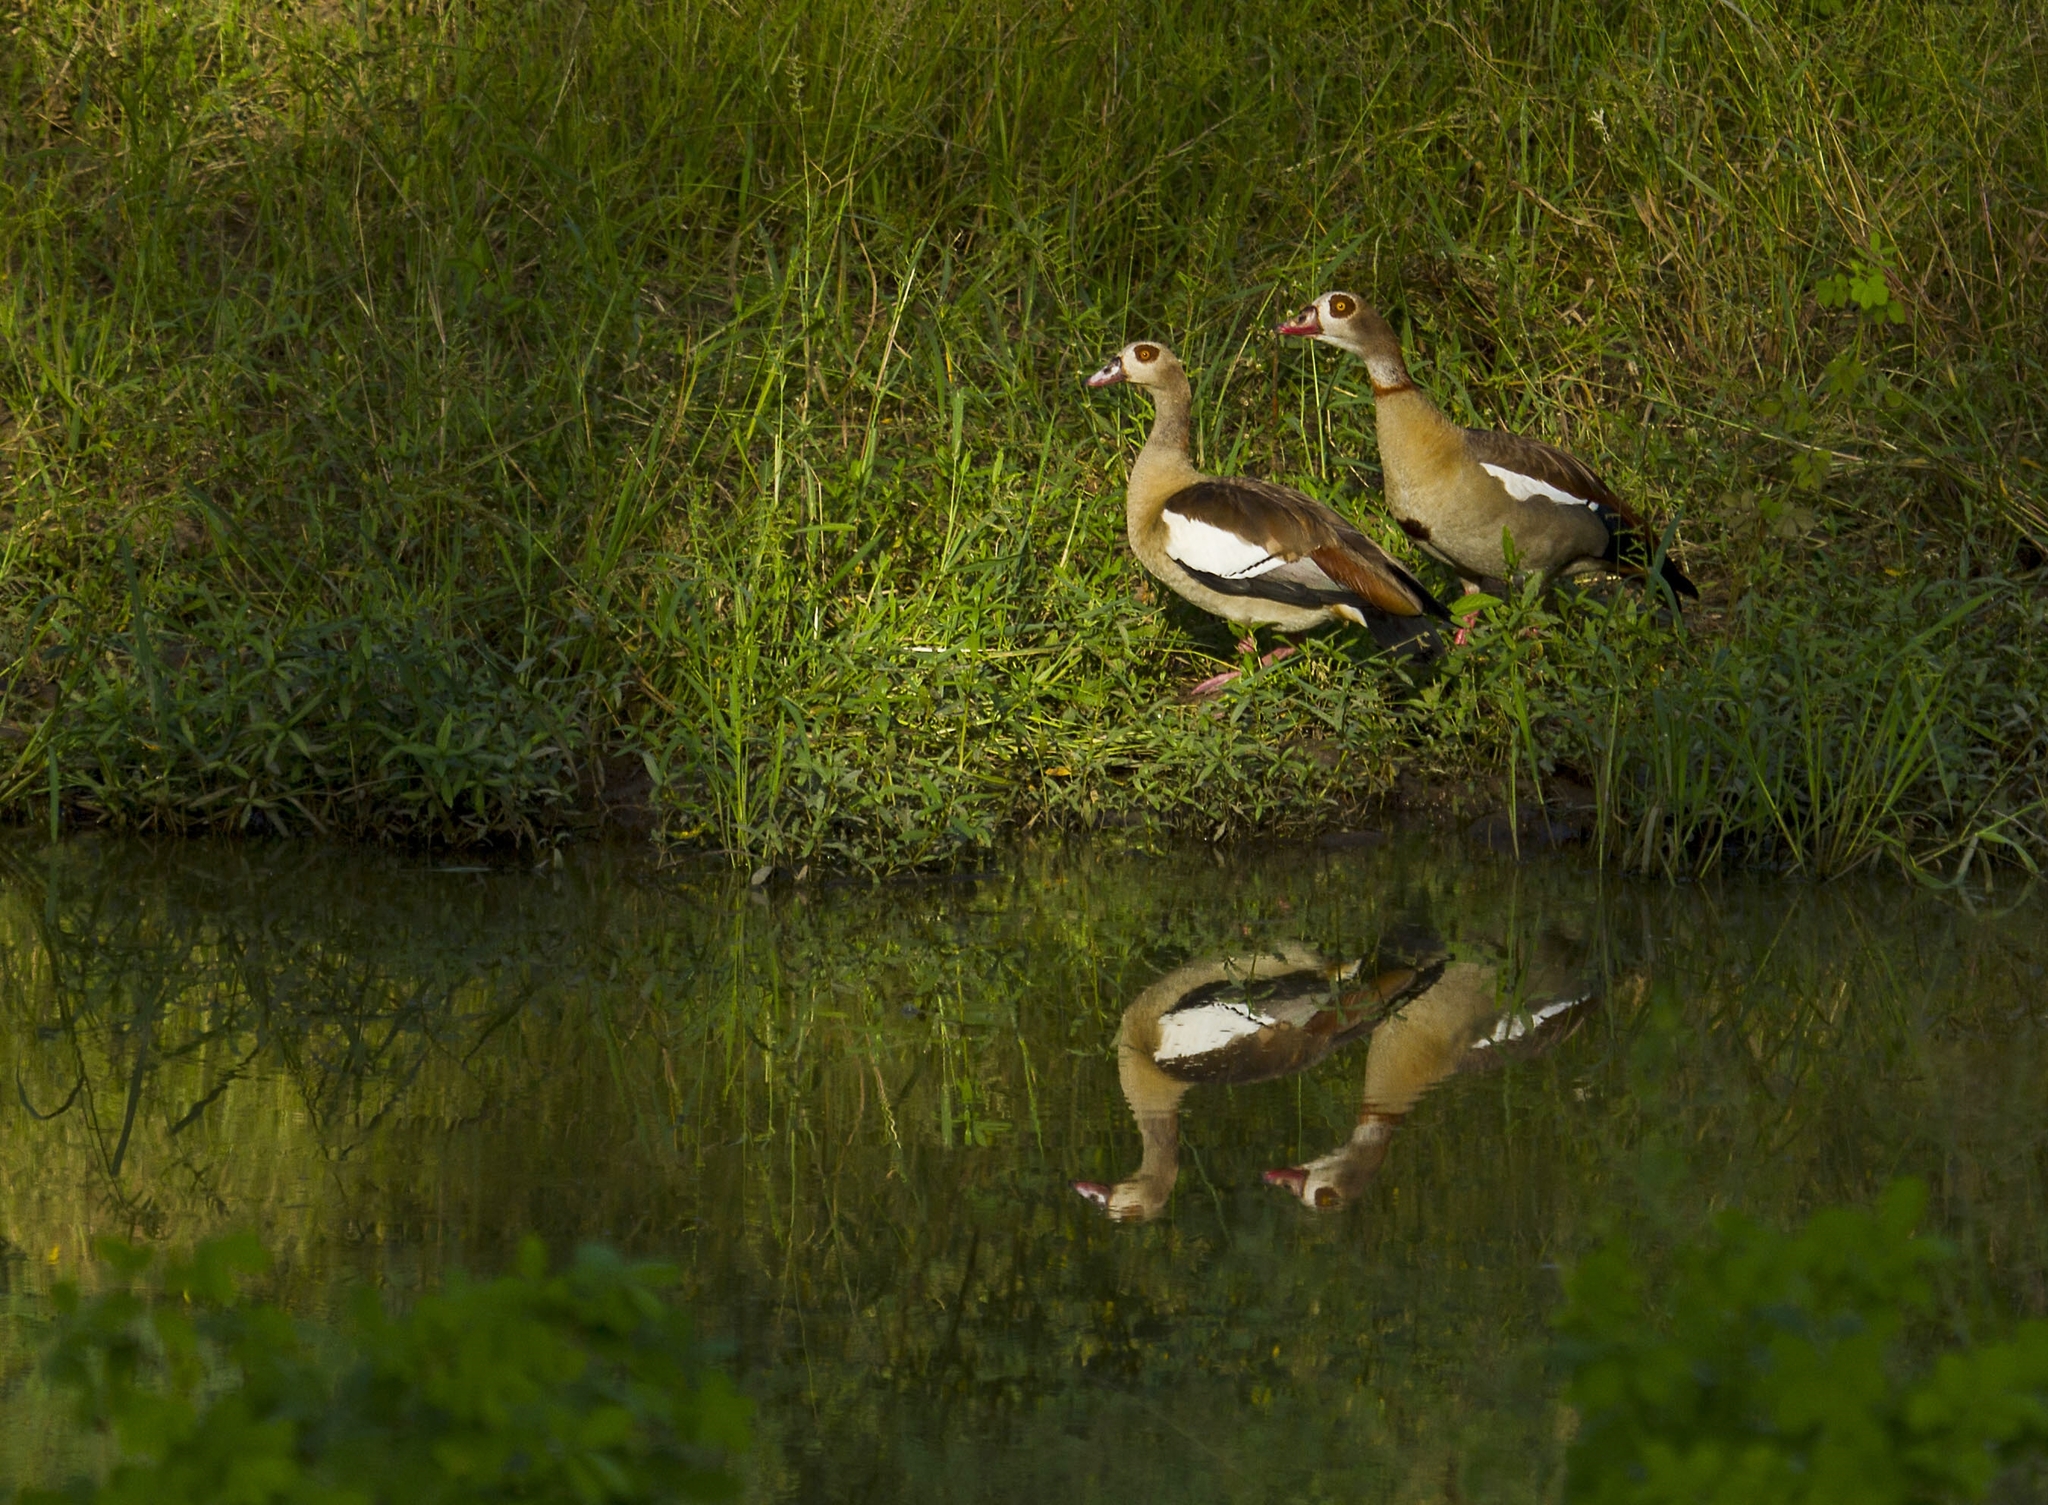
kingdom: Animalia
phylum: Chordata
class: Aves
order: Anseriformes
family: Anatidae
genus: Alopochen
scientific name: Alopochen aegyptiaca
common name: Egyptian goose
